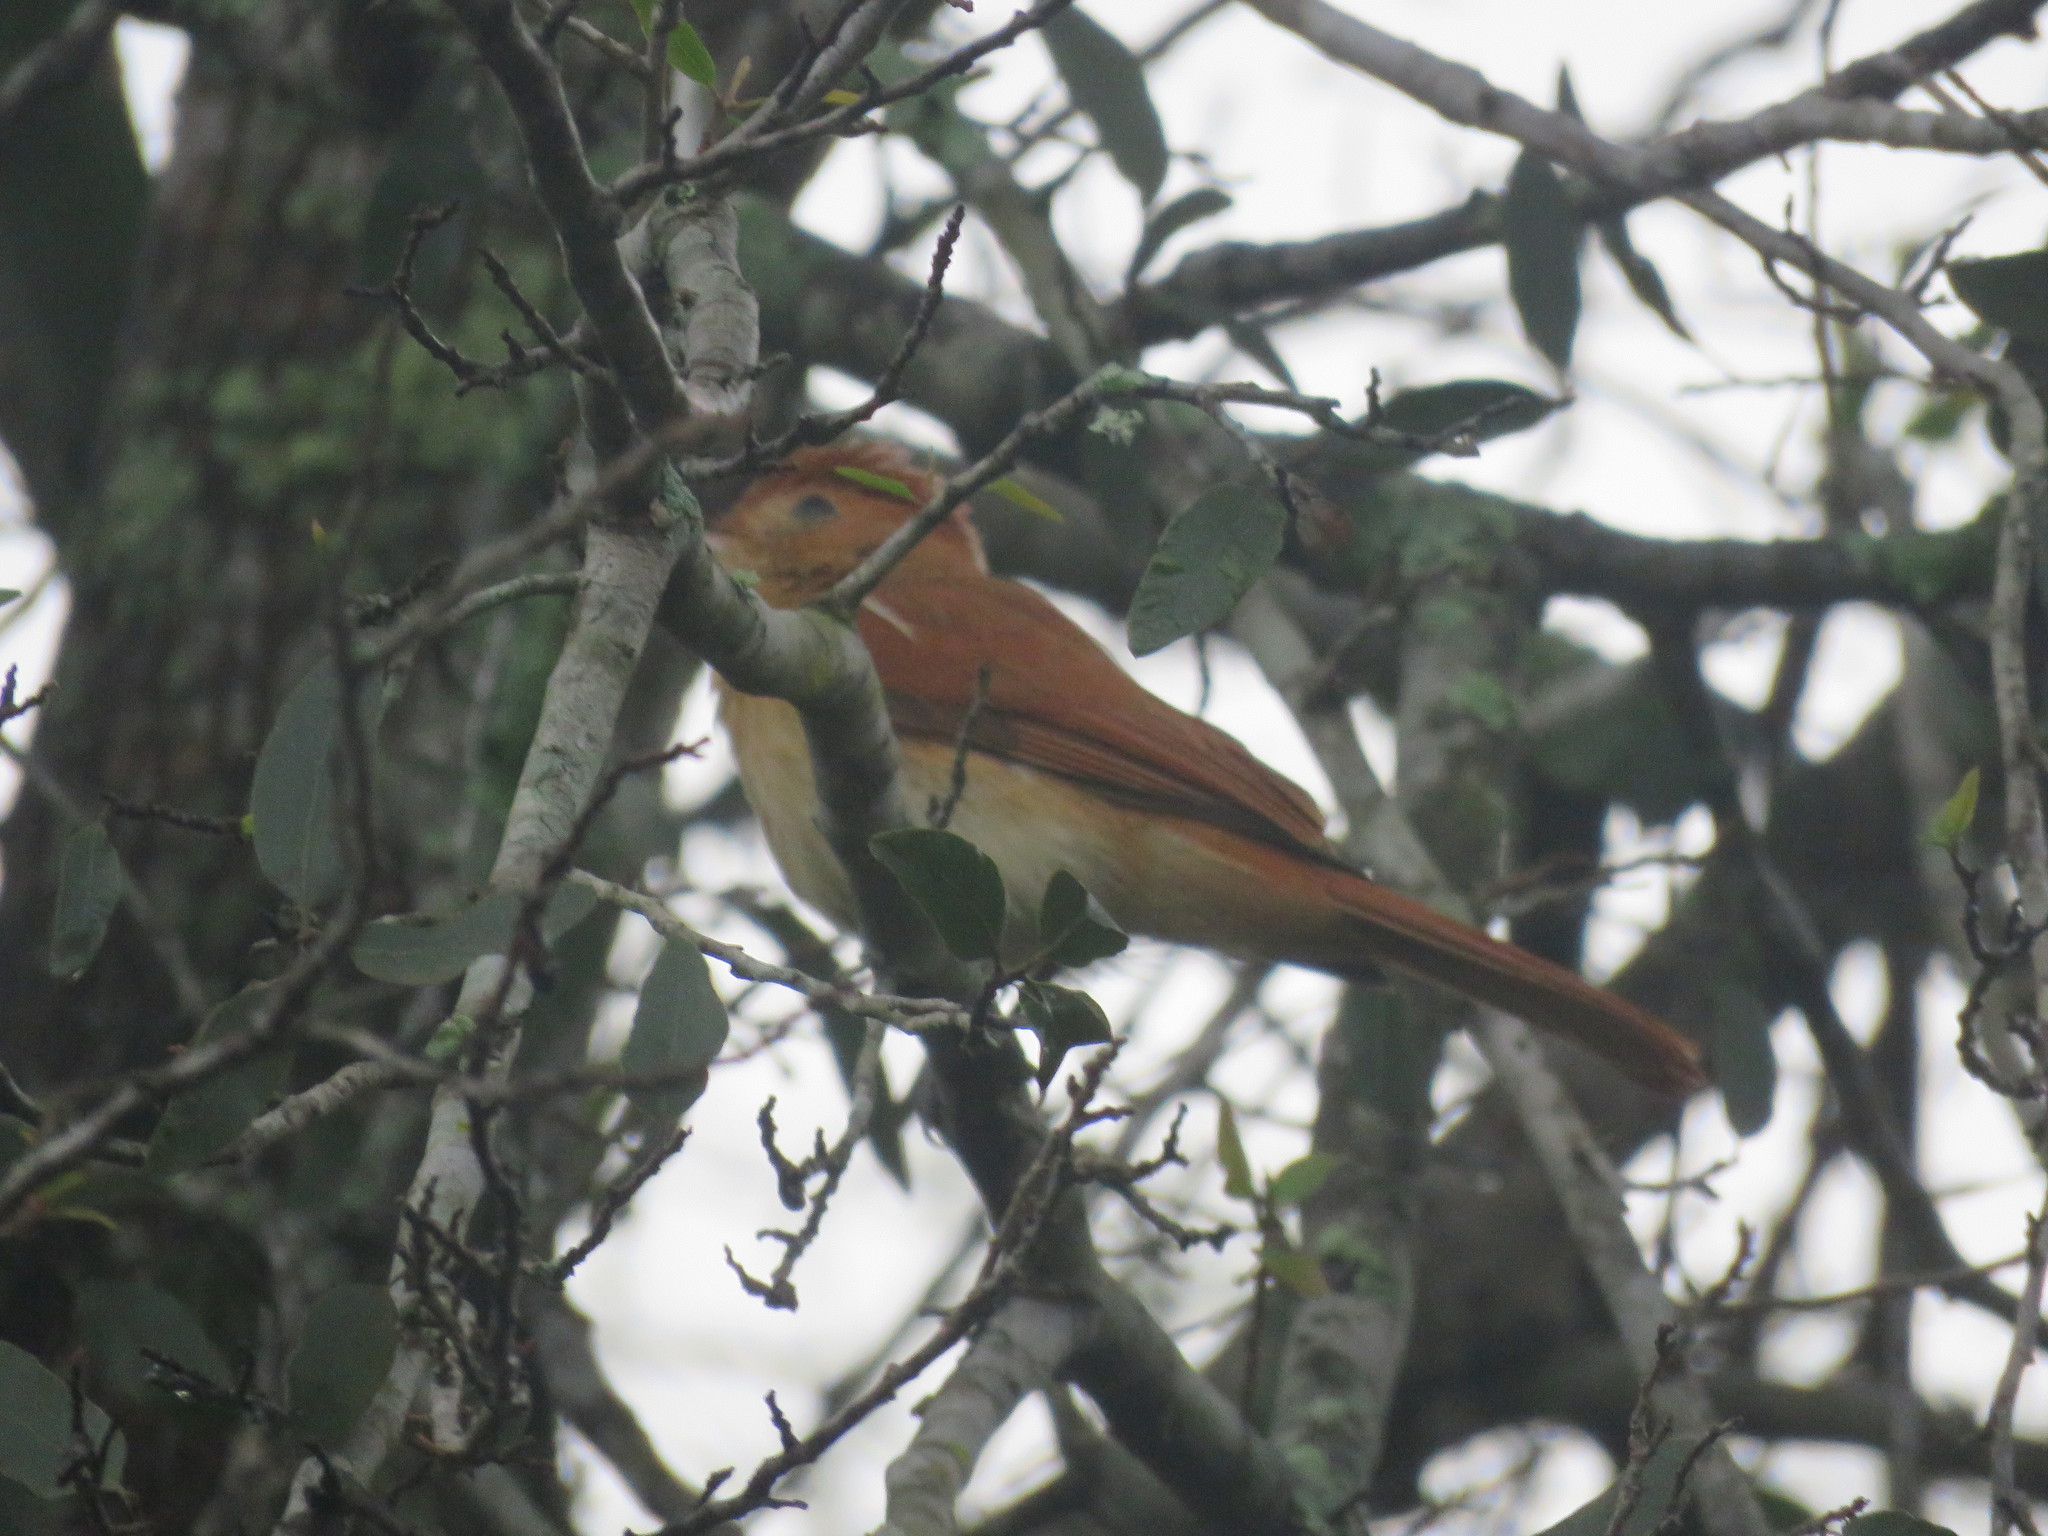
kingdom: Animalia
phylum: Chordata
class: Aves
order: Passeriformes
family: Tyrannidae
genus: Casiornis
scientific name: Casiornis rufus
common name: Rufous casiornis
